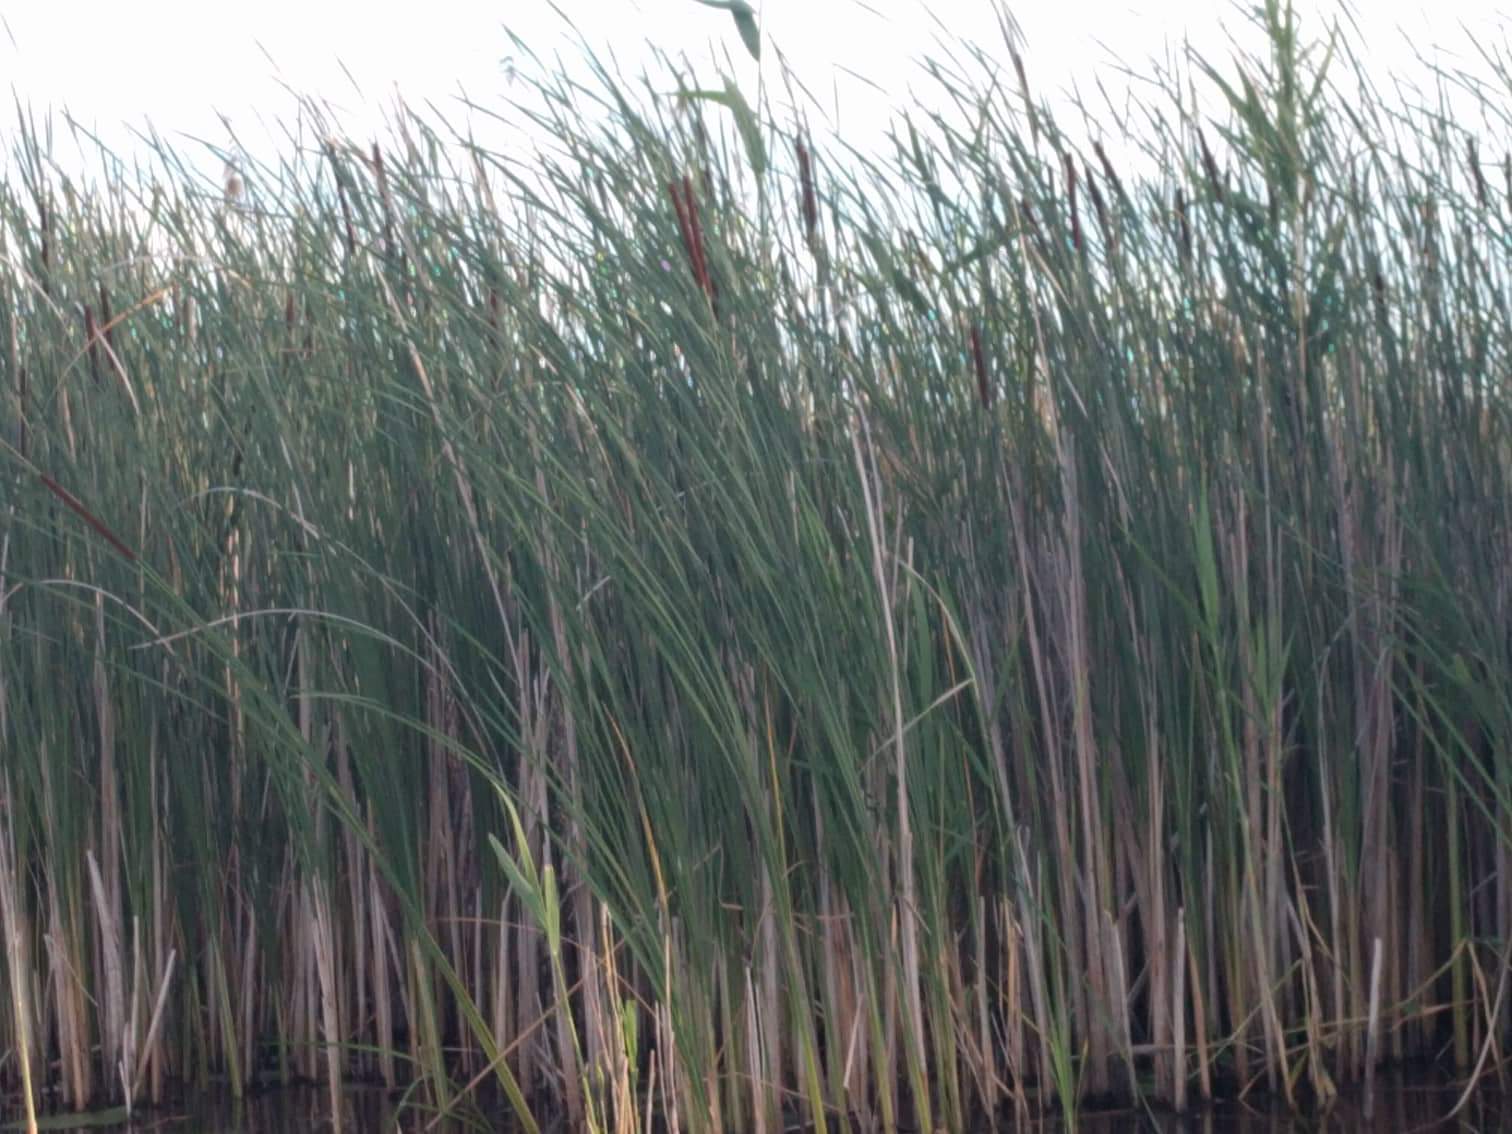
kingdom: Plantae
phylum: Tracheophyta
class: Liliopsida
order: Poales
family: Typhaceae
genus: Typha
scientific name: Typha angustifolia
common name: Lesser bulrush
